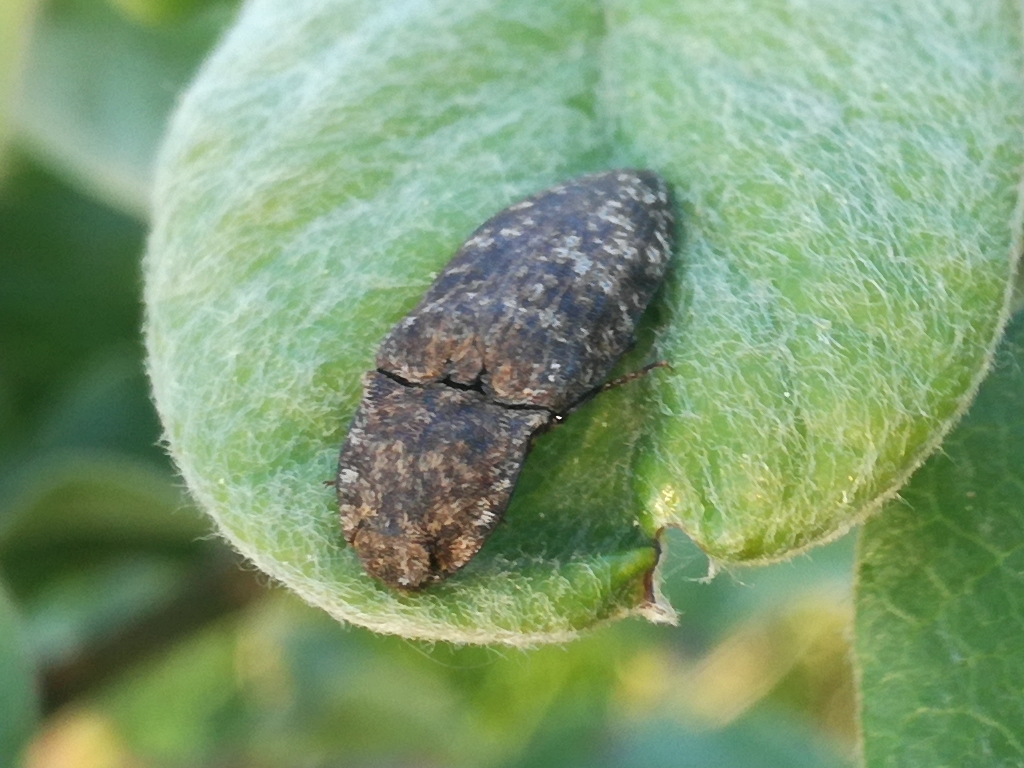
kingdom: Animalia
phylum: Arthropoda
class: Insecta
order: Coleoptera
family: Elateridae
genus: Agrypnus
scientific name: Agrypnus murinus
